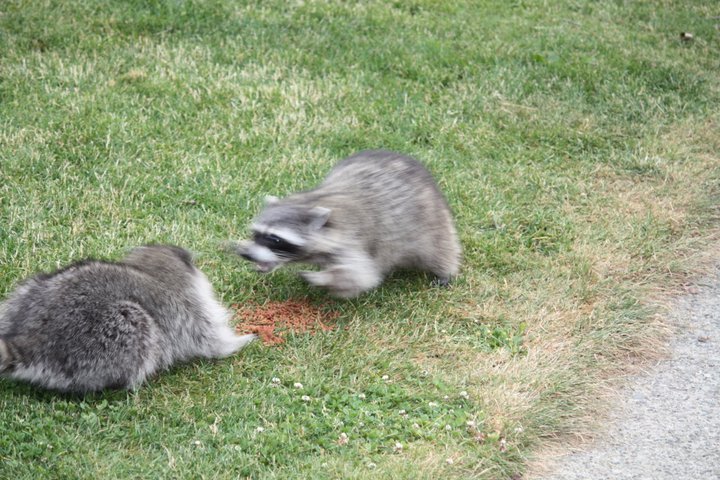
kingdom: Animalia
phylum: Chordata
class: Mammalia
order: Carnivora
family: Procyonidae
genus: Procyon
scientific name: Procyon lotor
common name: Raccoon
